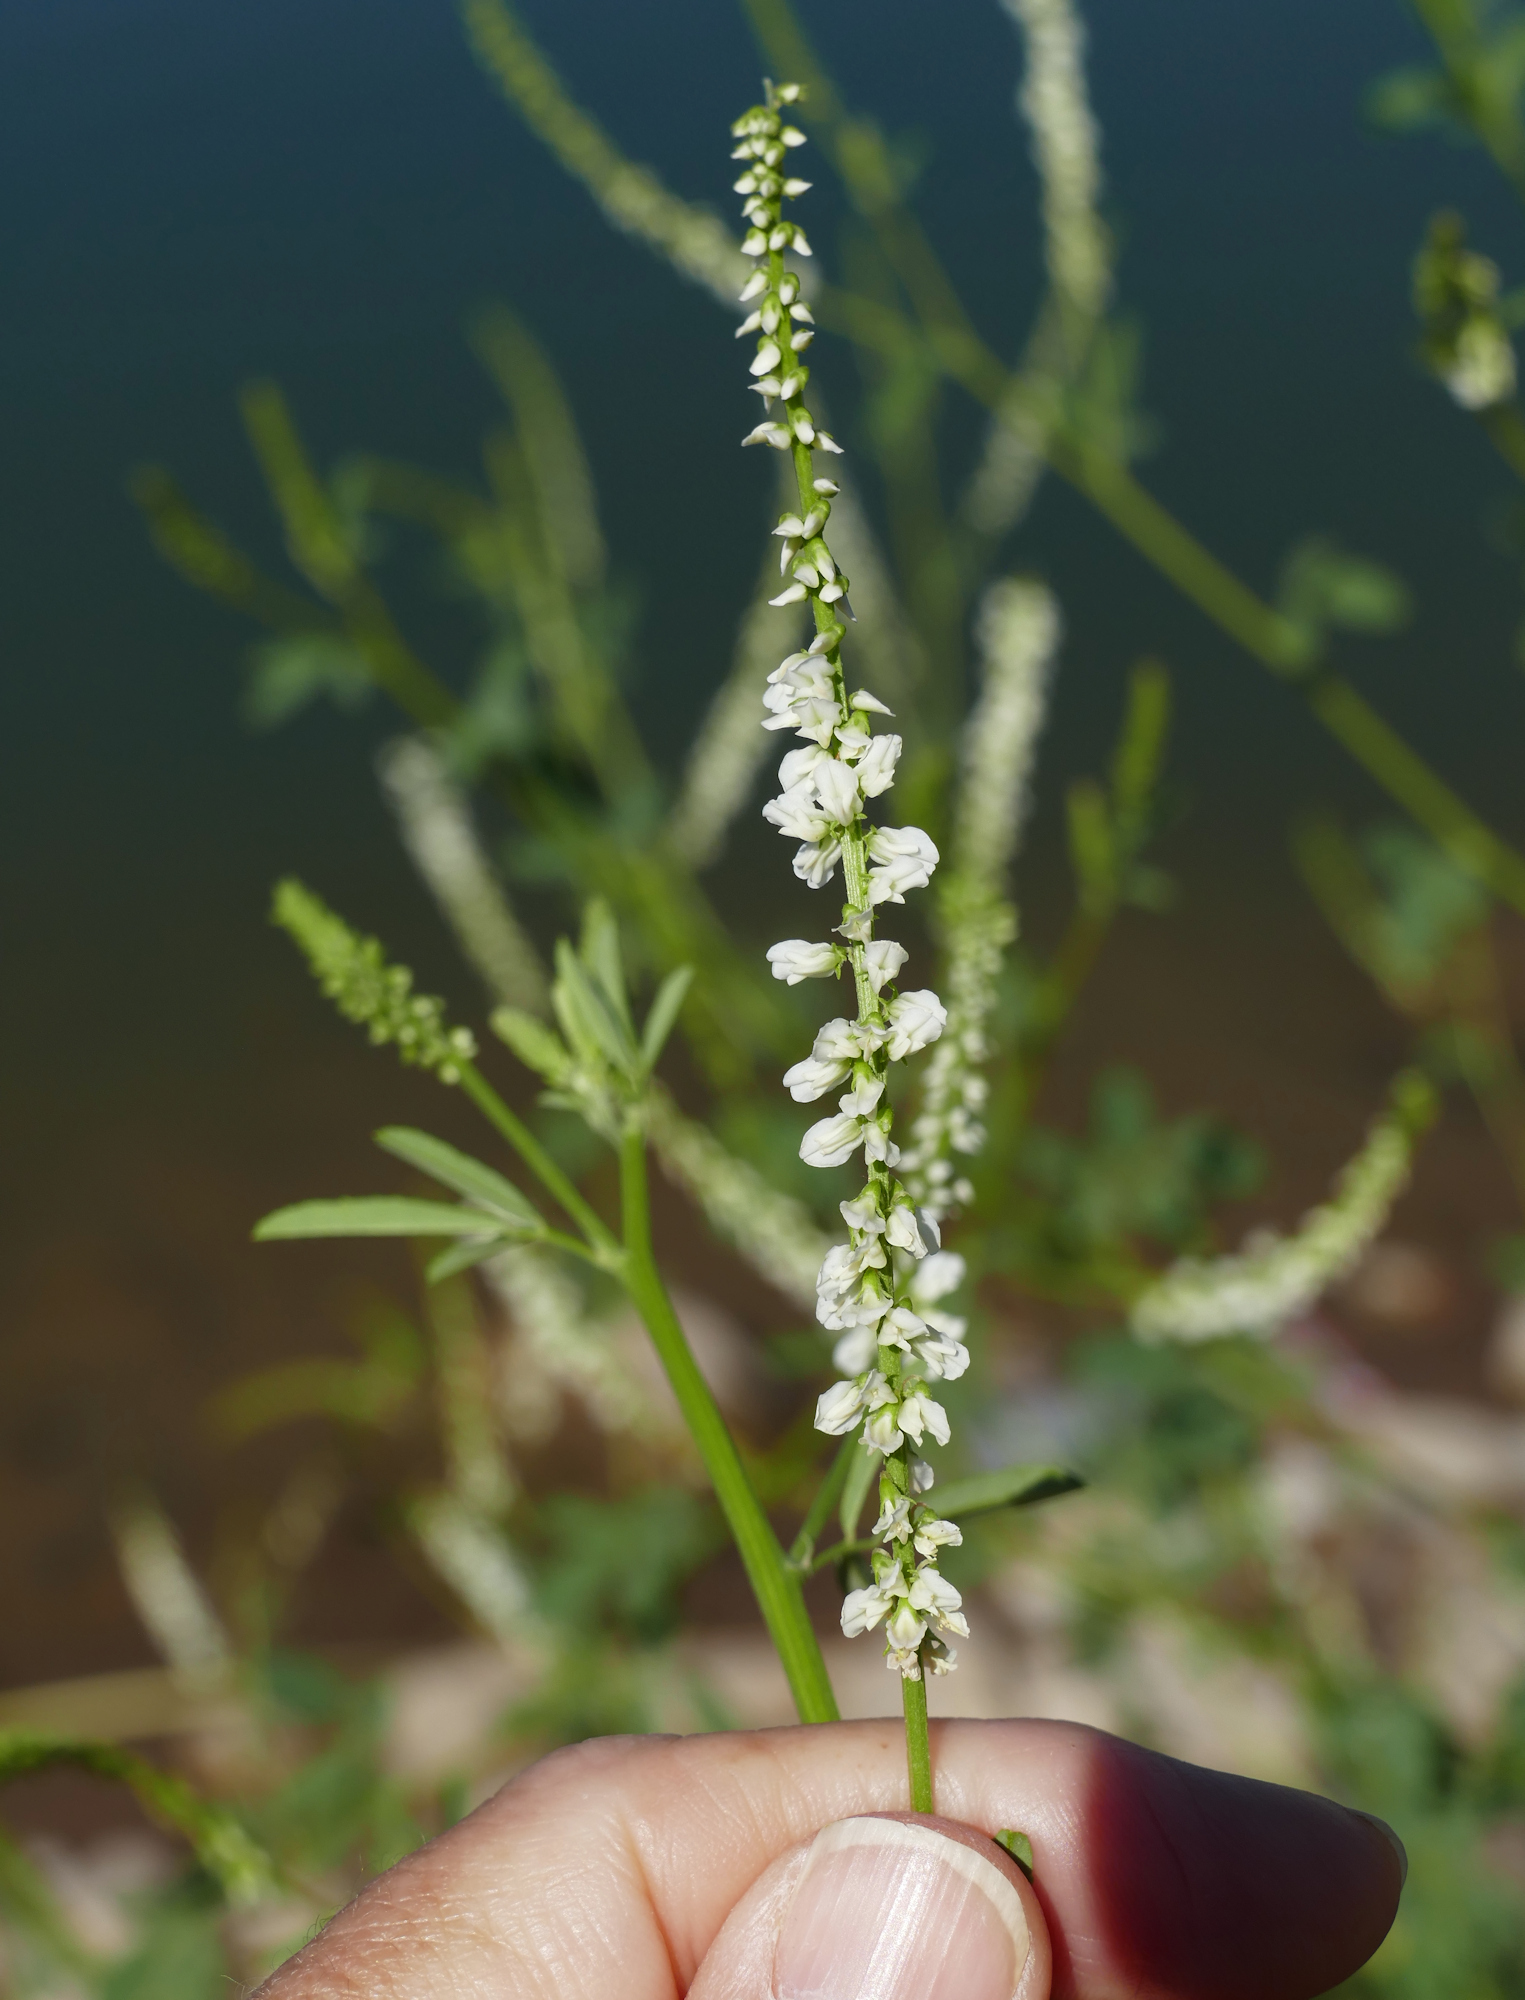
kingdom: Plantae
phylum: Tracheophyta
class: Magnoliopsida
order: Fabales
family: Fabaceae
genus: Melilotus
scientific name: Melilotus albus
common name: White melilot
